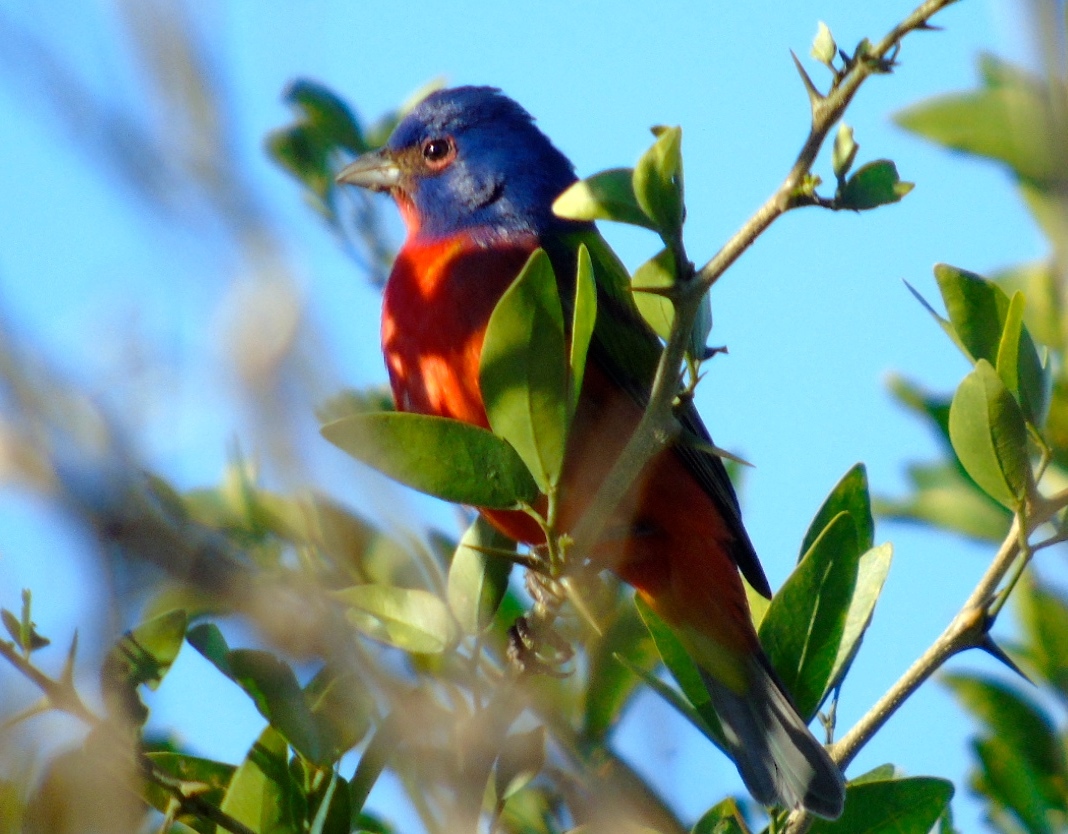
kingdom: Animalia
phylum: Chordata
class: Aves
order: Passeriformes
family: Cardinalidae
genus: Passerina
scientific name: Passerina ciris
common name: Painted bunting
